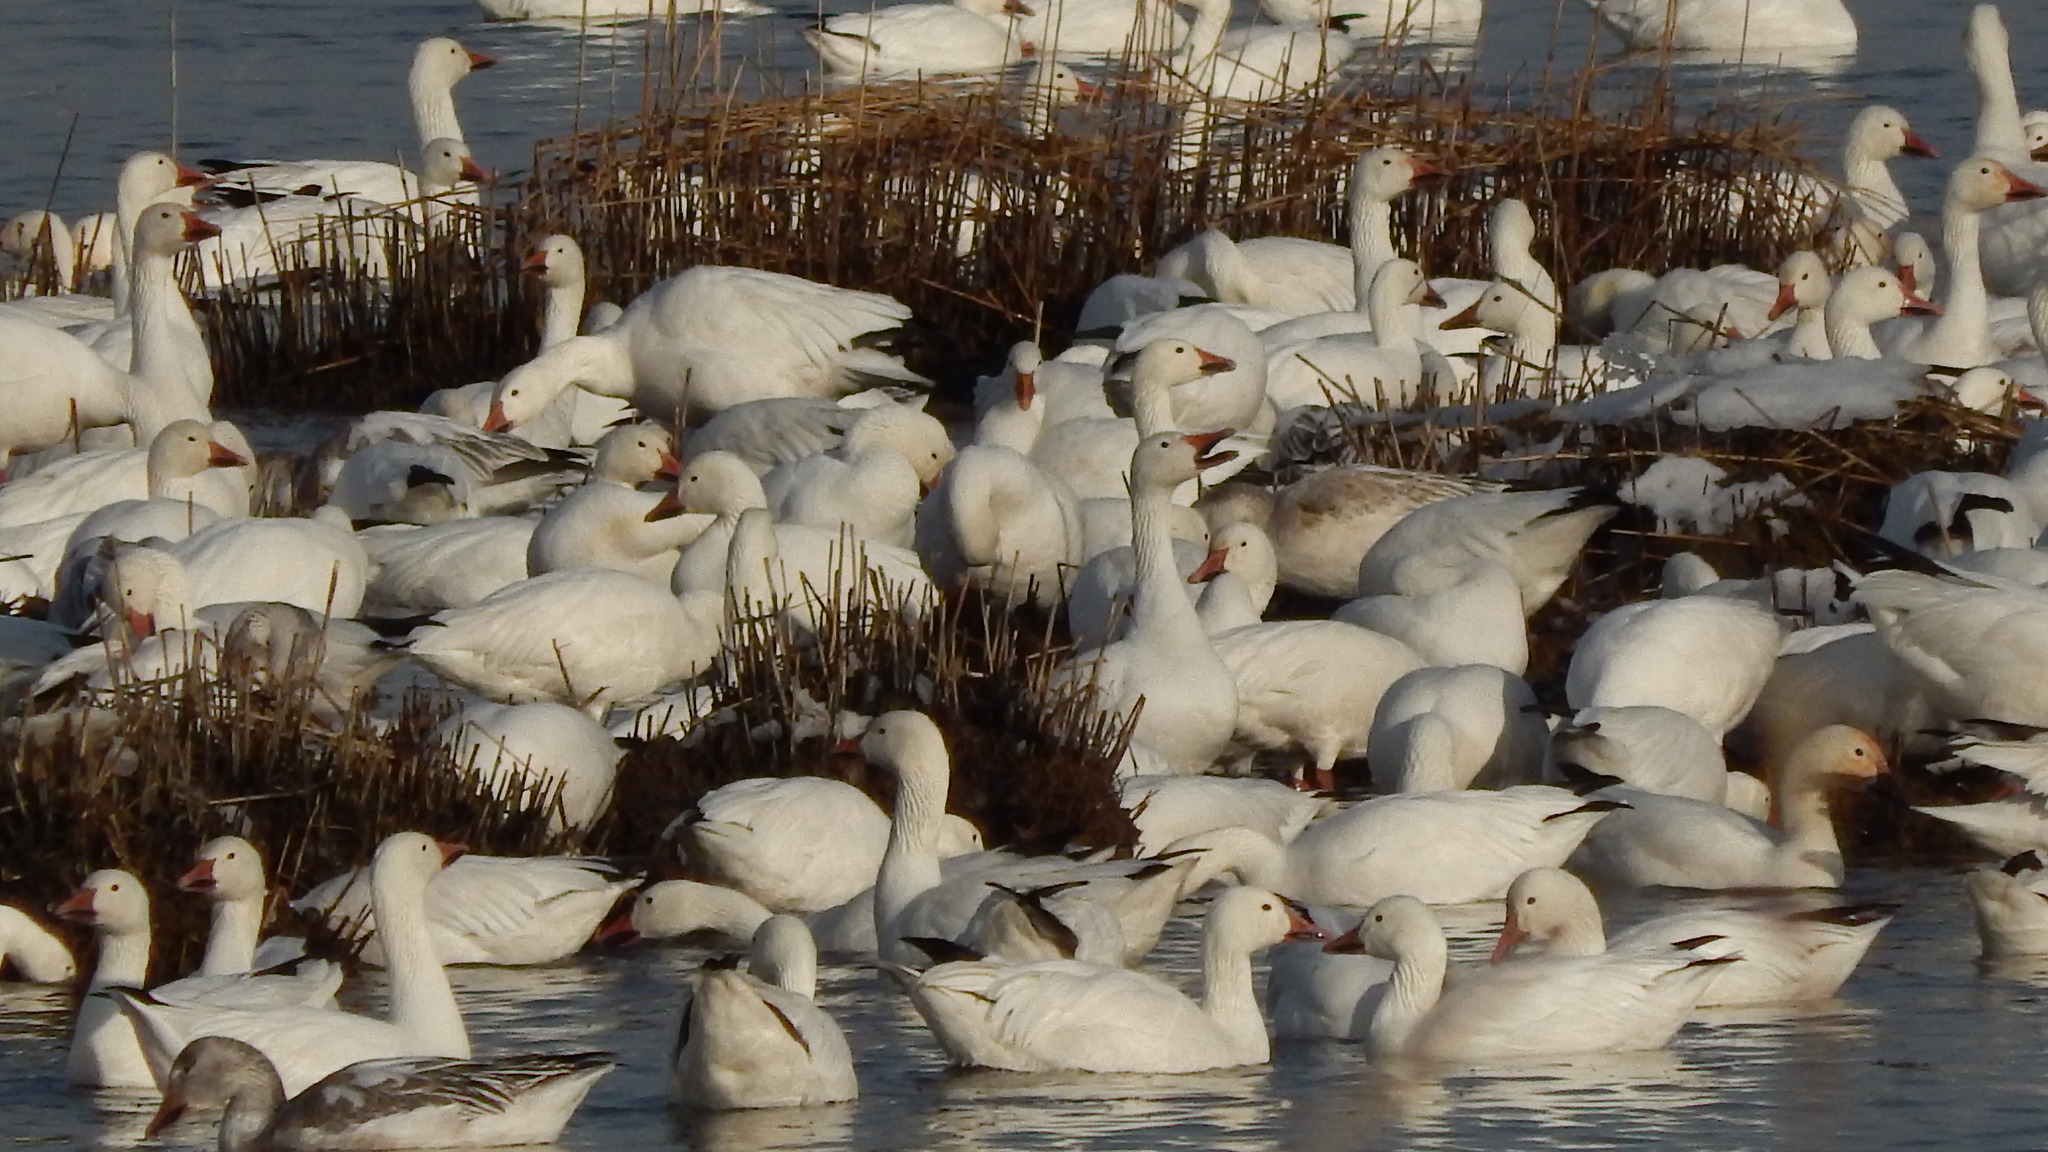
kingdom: Animalia
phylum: Chordata
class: Aves
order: Anseriformes
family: Anatidae
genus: Anser
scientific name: Anser caerulescens
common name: Snow goose
